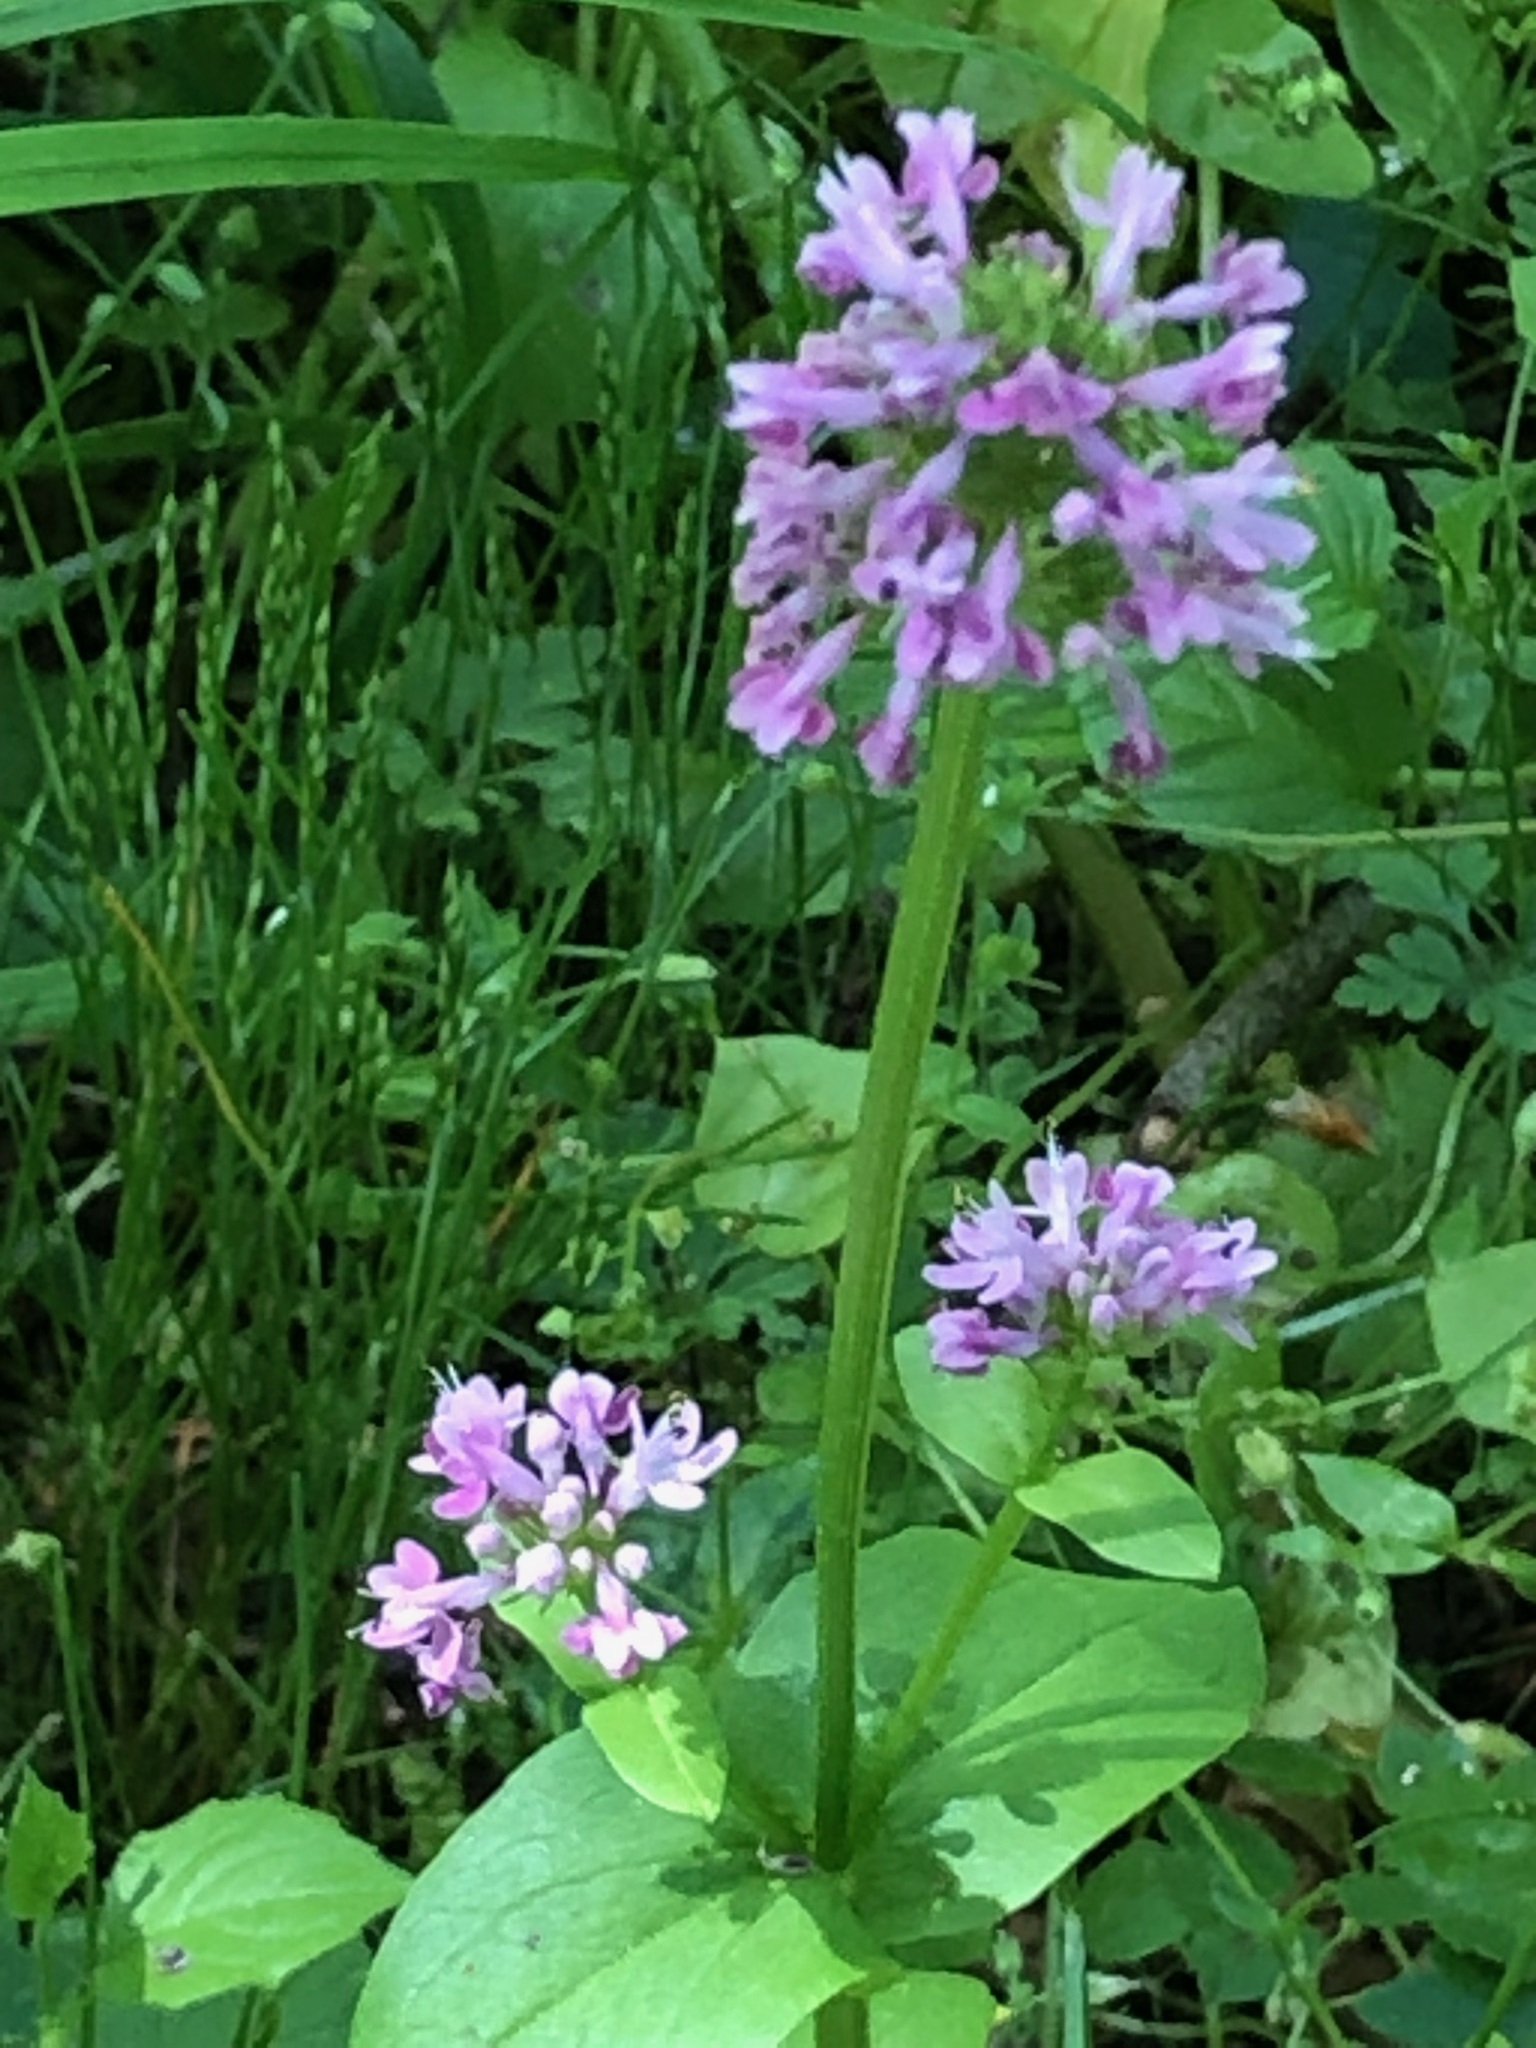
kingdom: Plantae
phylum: Tracheophyta
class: Magnoliopsida
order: Dipsacales
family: Caprifoliaceae
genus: Plectritis
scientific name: Plectritis congesta
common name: Pink plectritis
